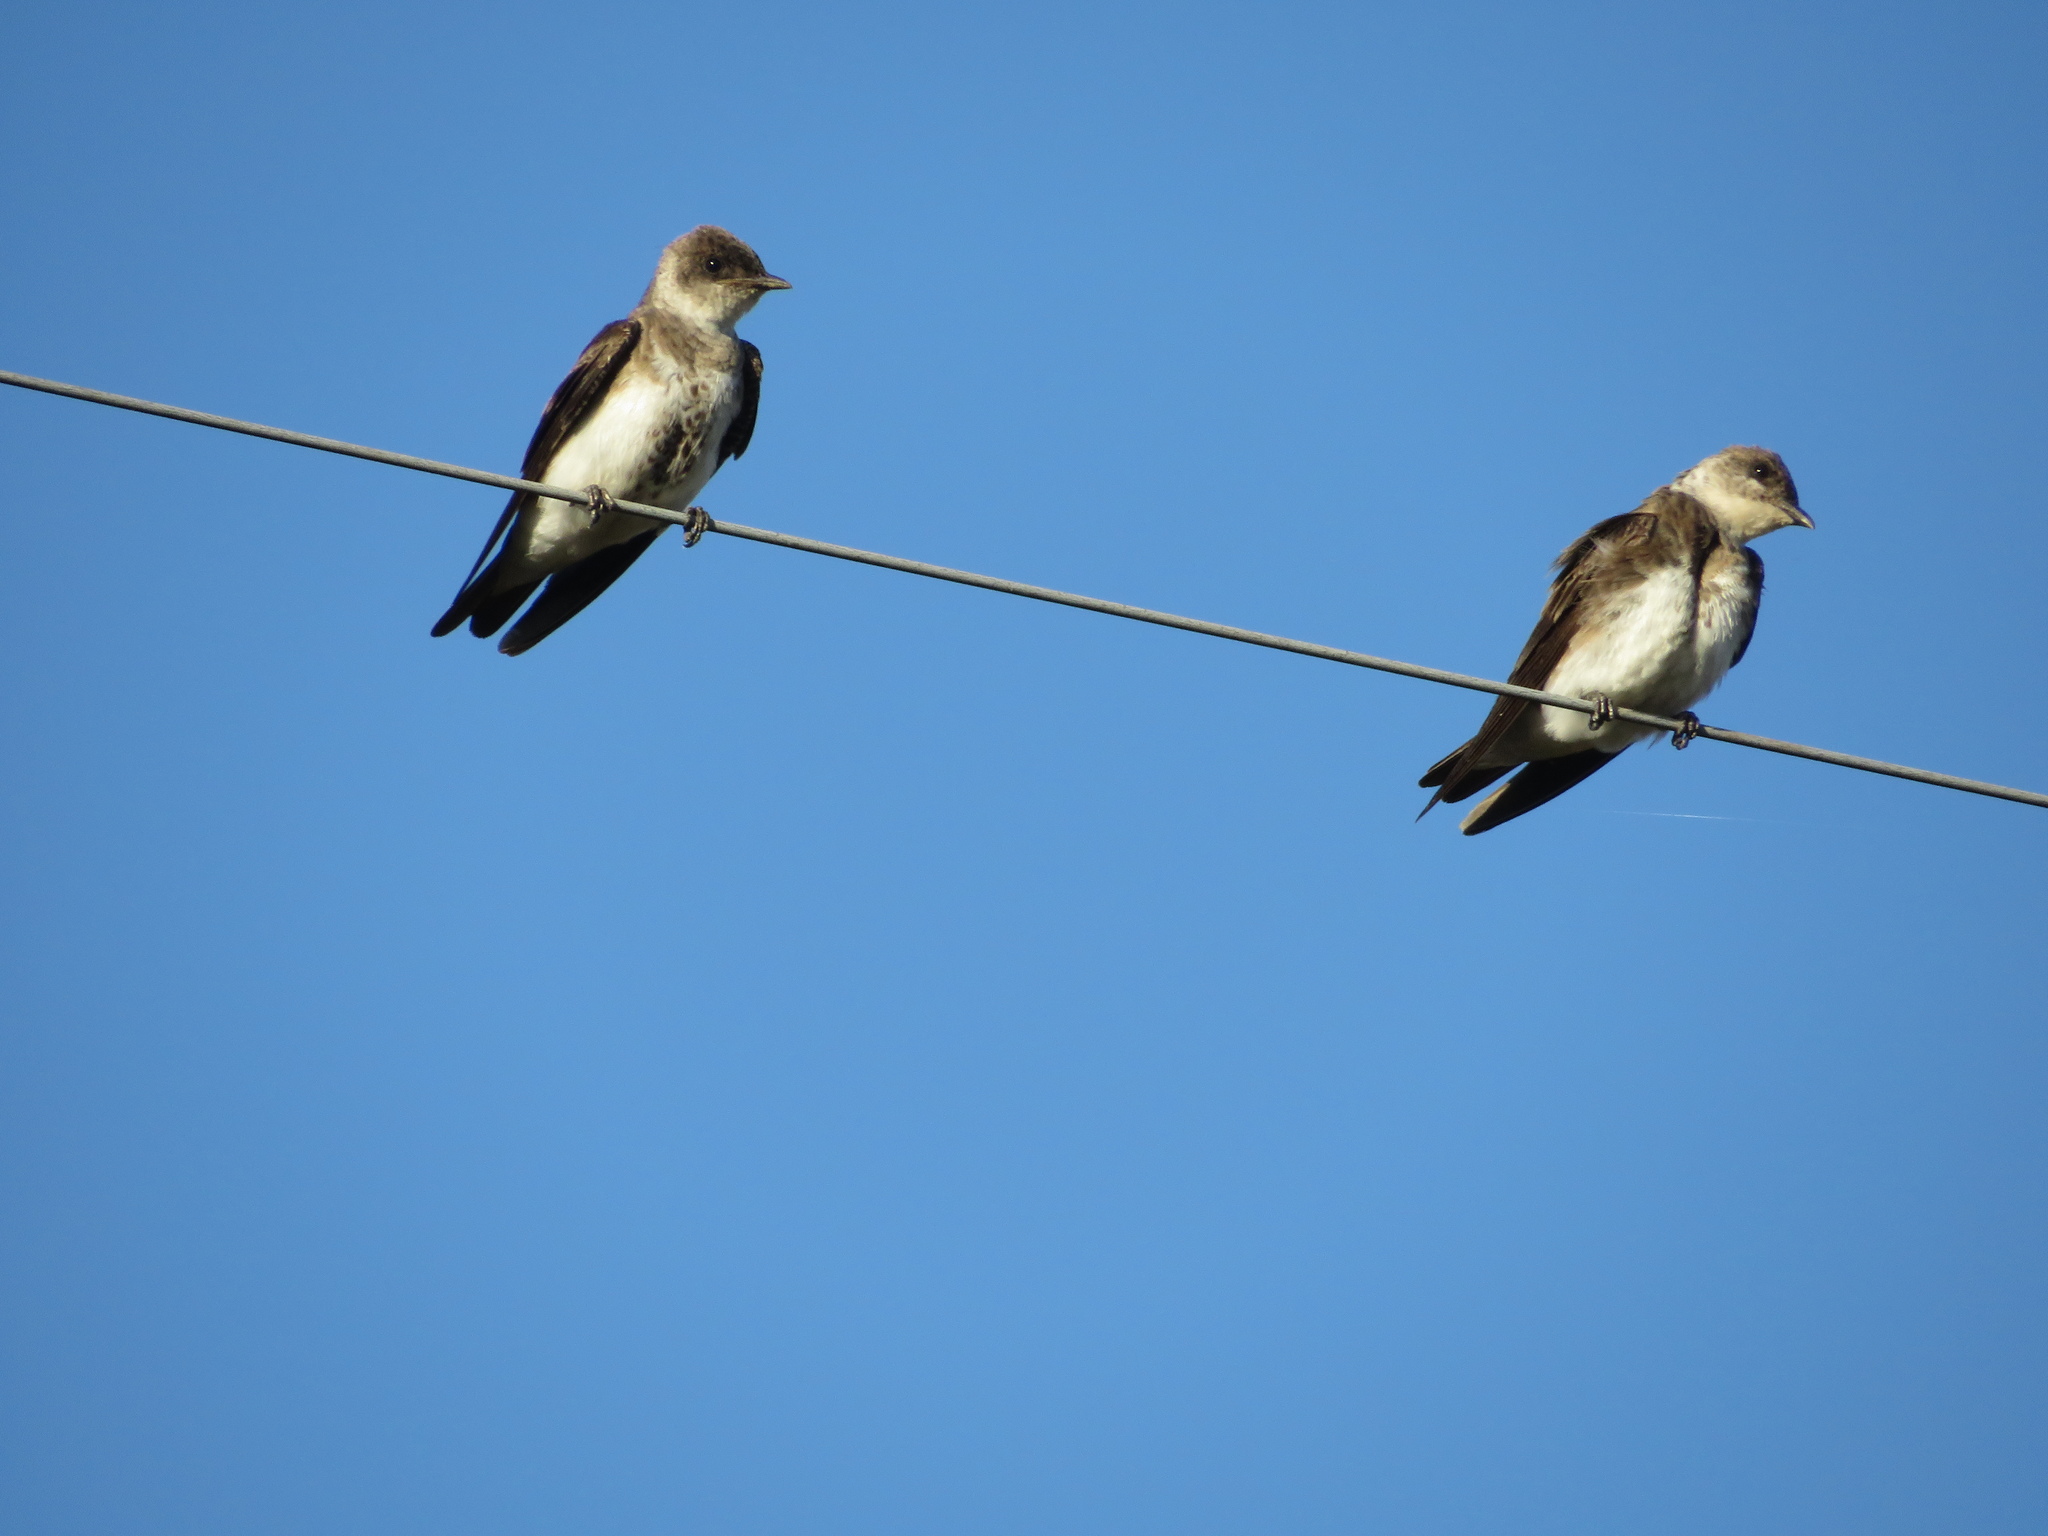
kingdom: Animalia
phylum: Chordata
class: Aves
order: Passeriformes
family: Hirundinidae
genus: Progne
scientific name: Progne tapera
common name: Brown-chested martin
